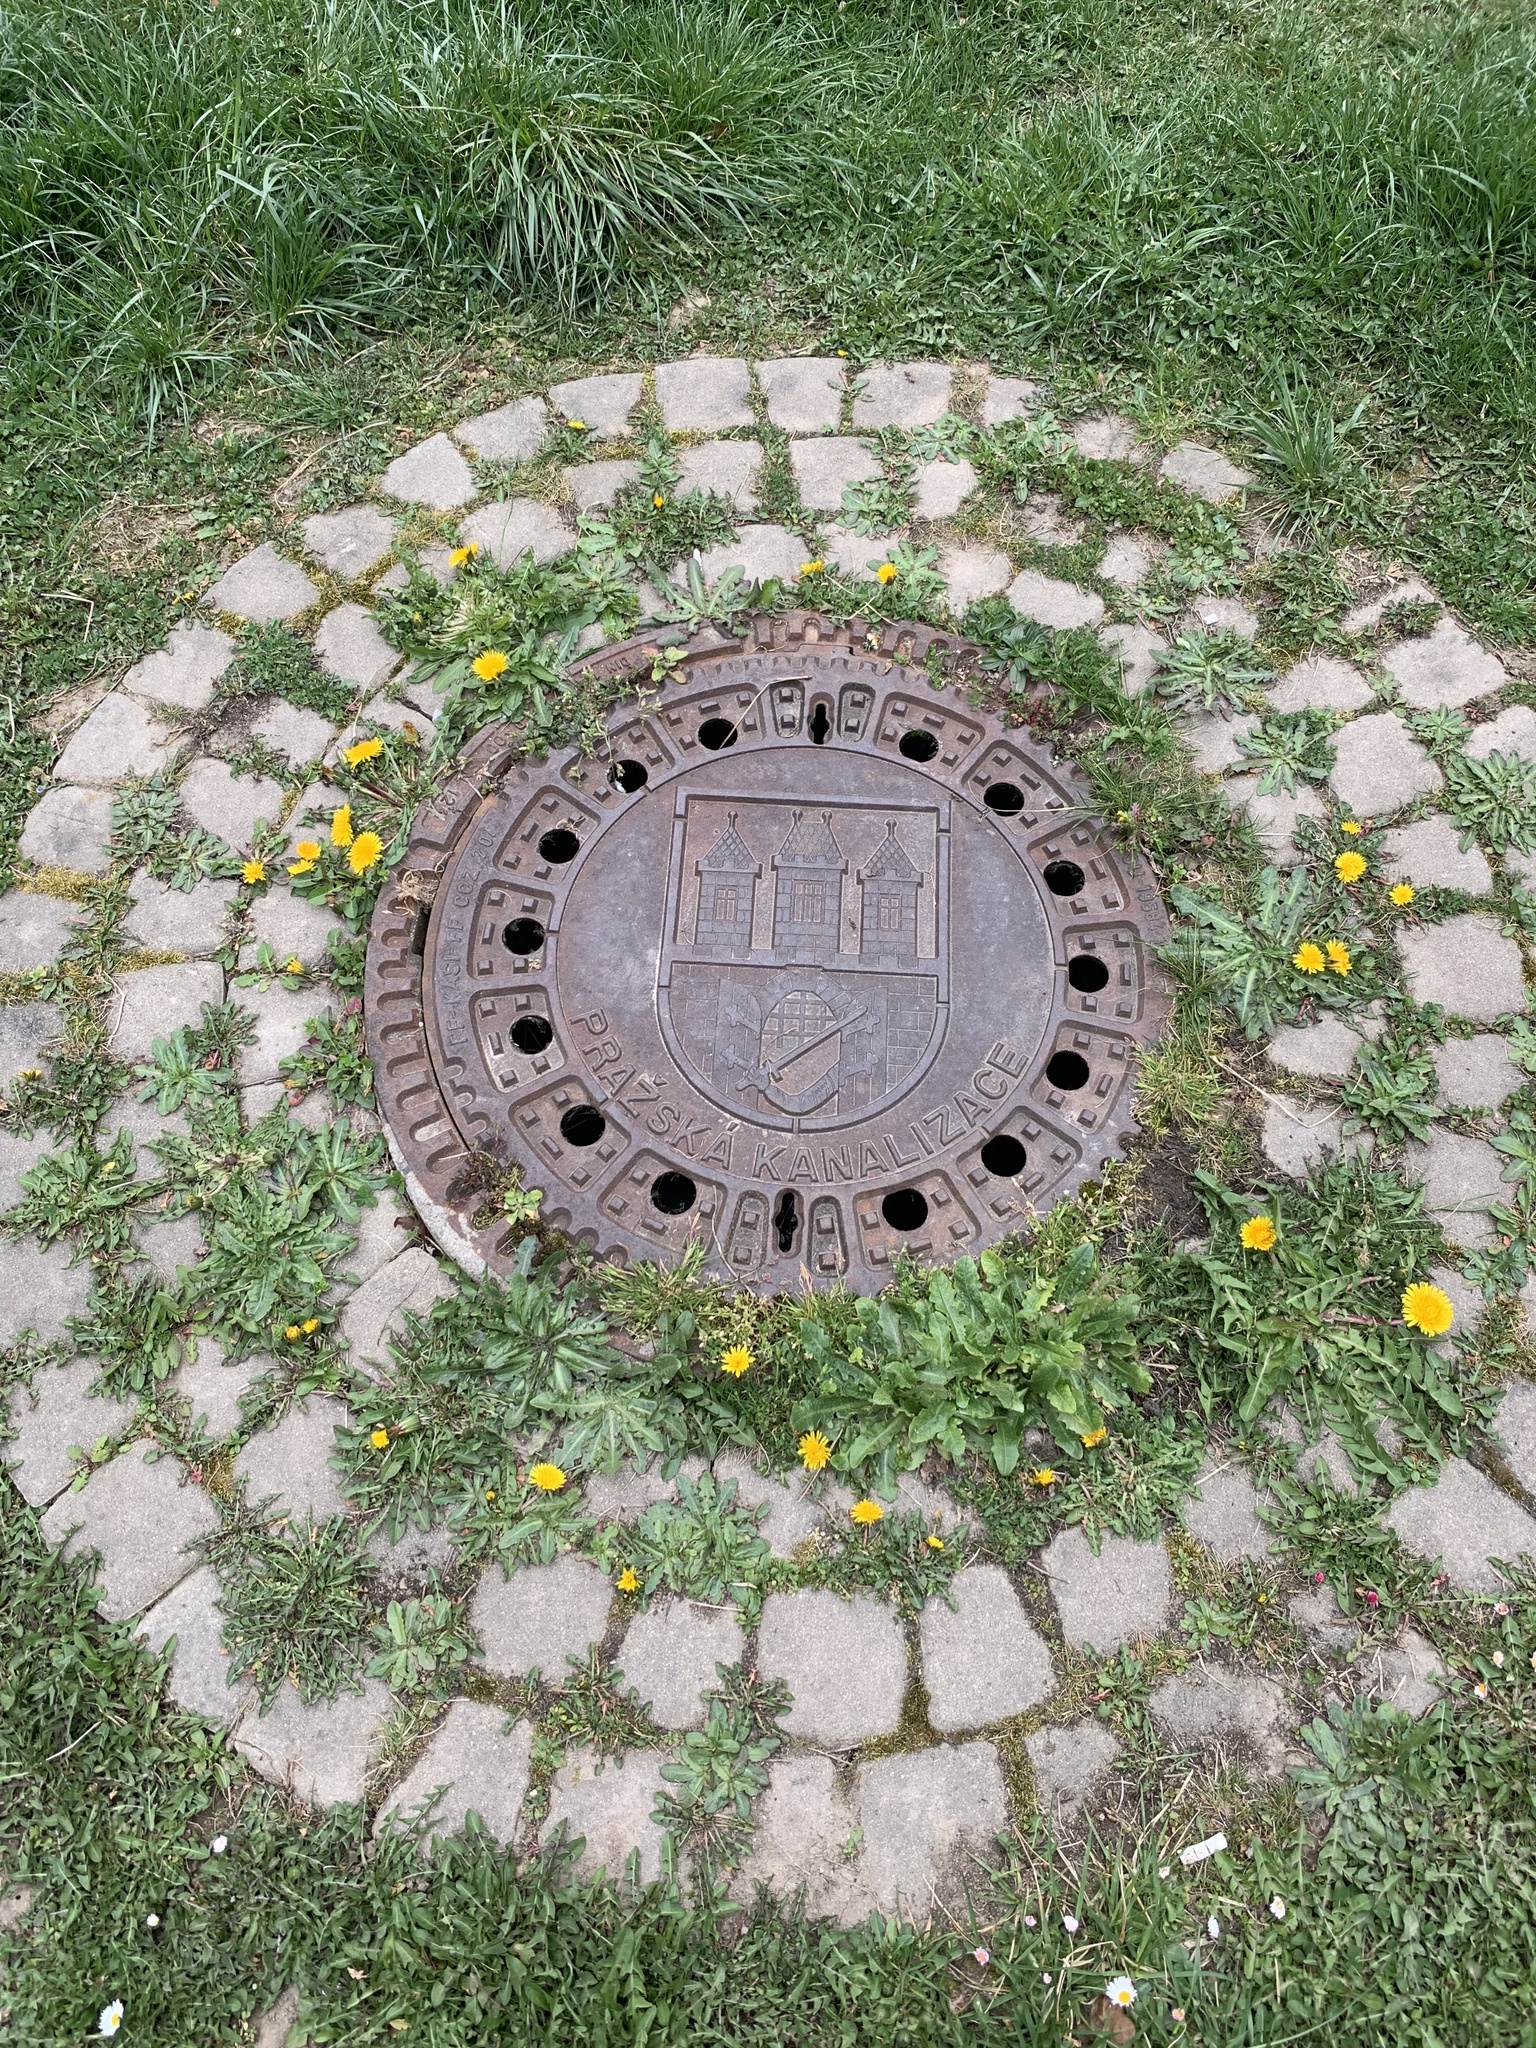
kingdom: Plantae
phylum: Tracheophyta
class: Magnoliopsida
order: Asterales
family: Asteraceae
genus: Taraxacum
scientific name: Taraxacum officinale
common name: Common dandelion
